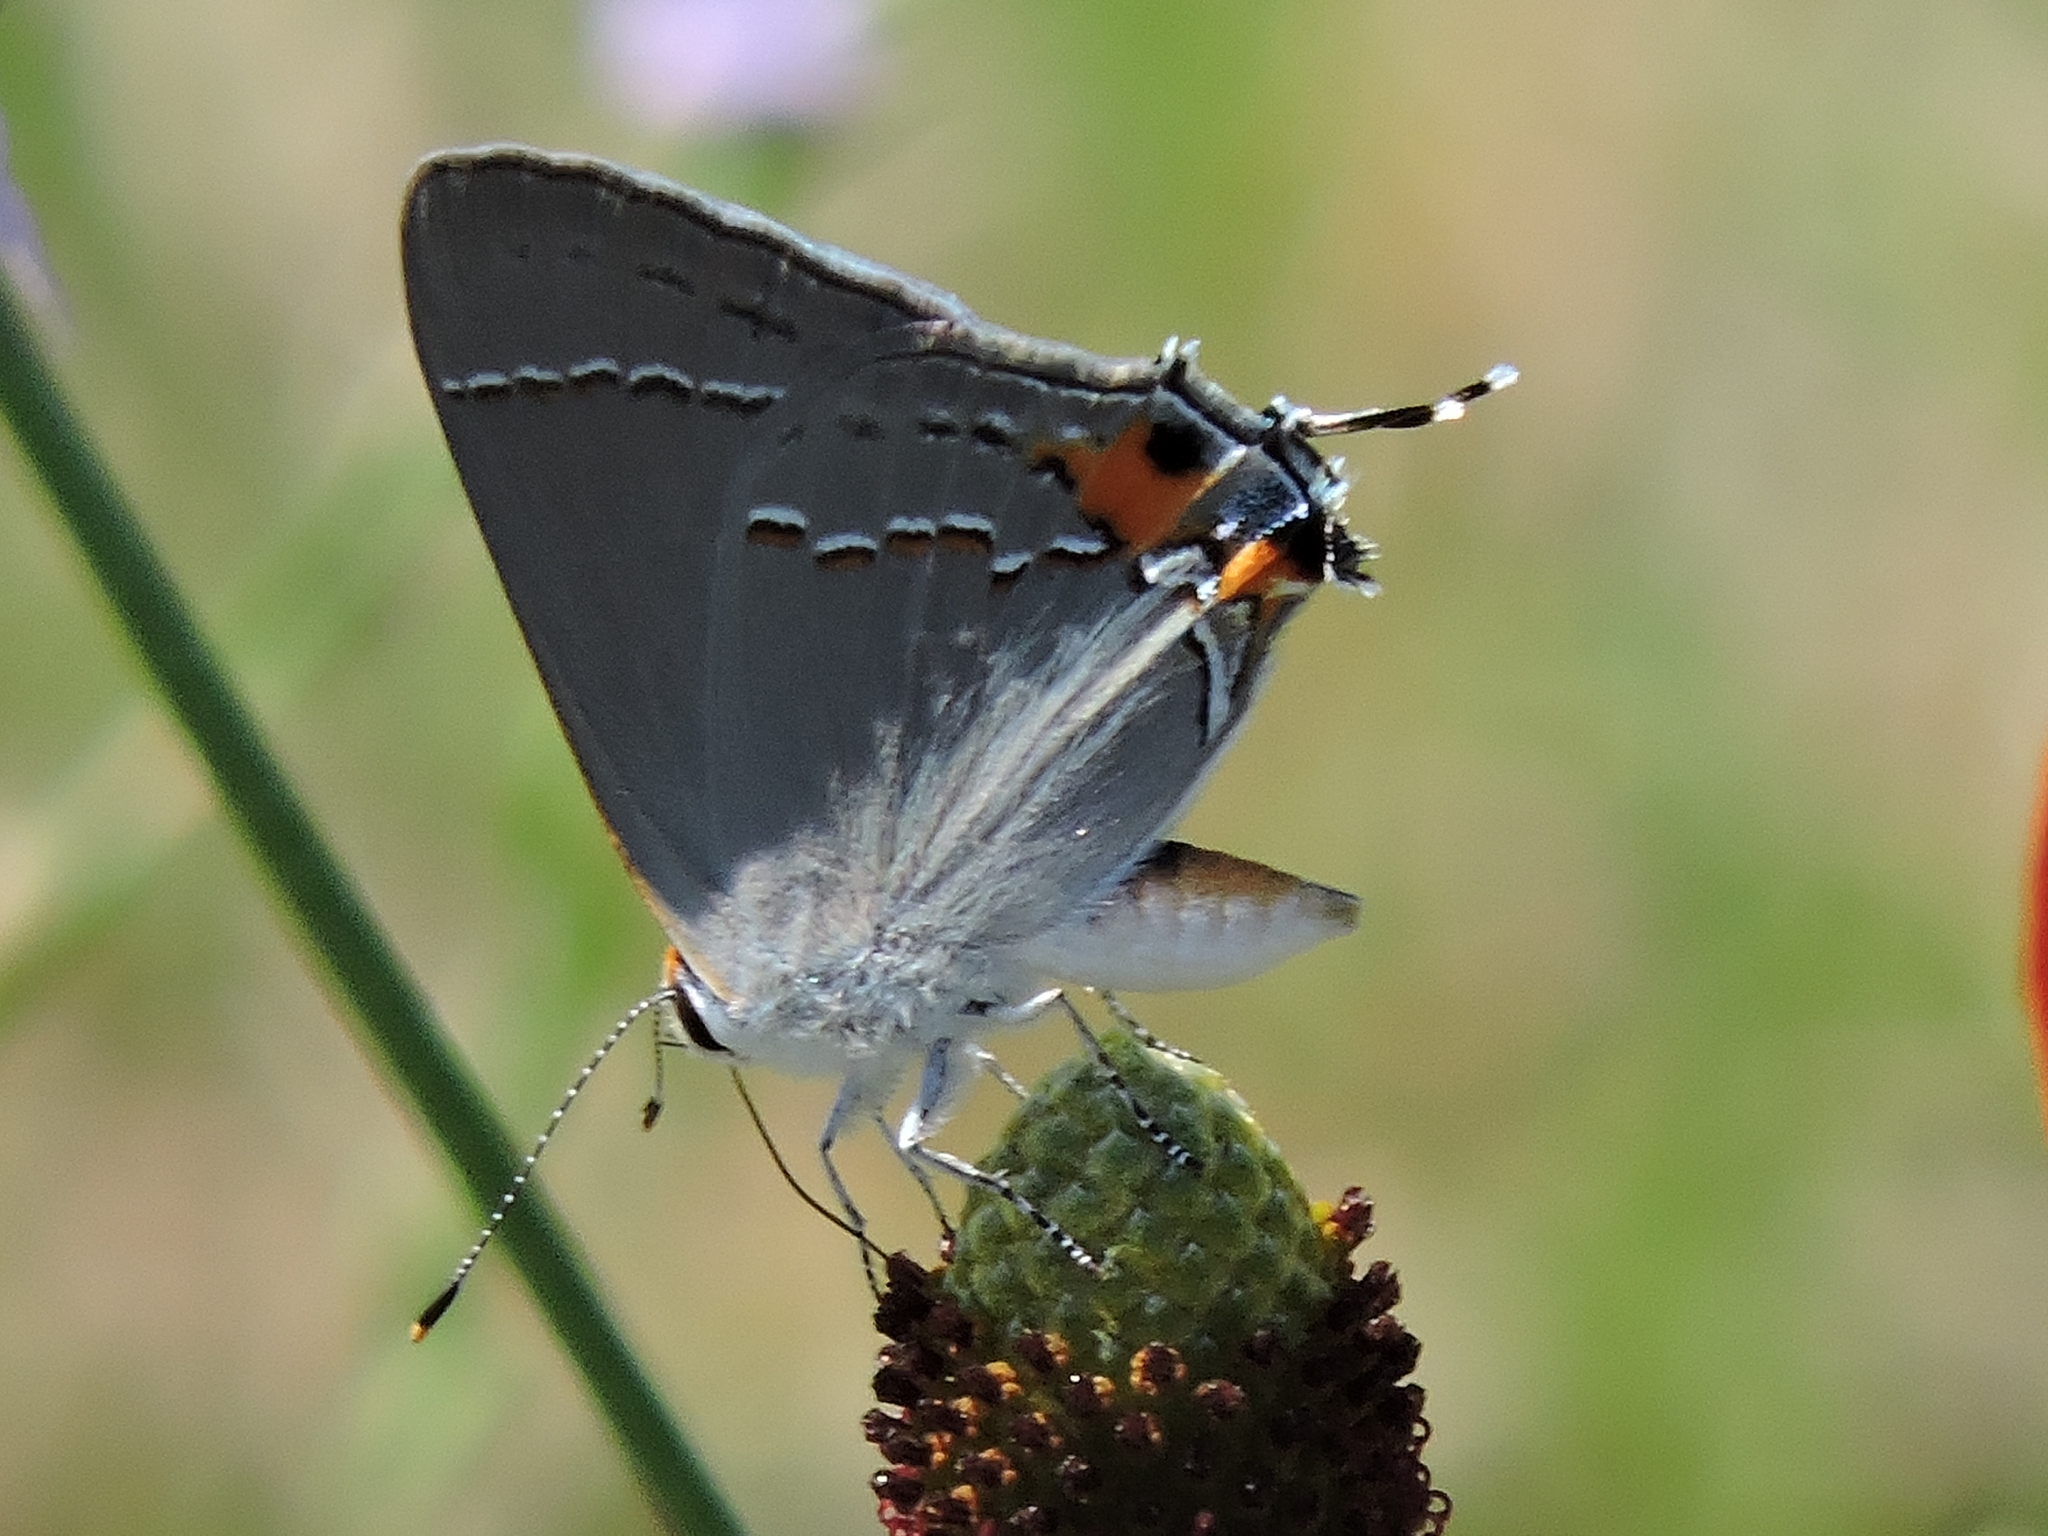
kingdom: Animalia
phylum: Arthropoda
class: Insecta
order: Lepidoptera
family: Lycaenidae
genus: Strymon
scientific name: Strymon melinus
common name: Gray hairstreak
